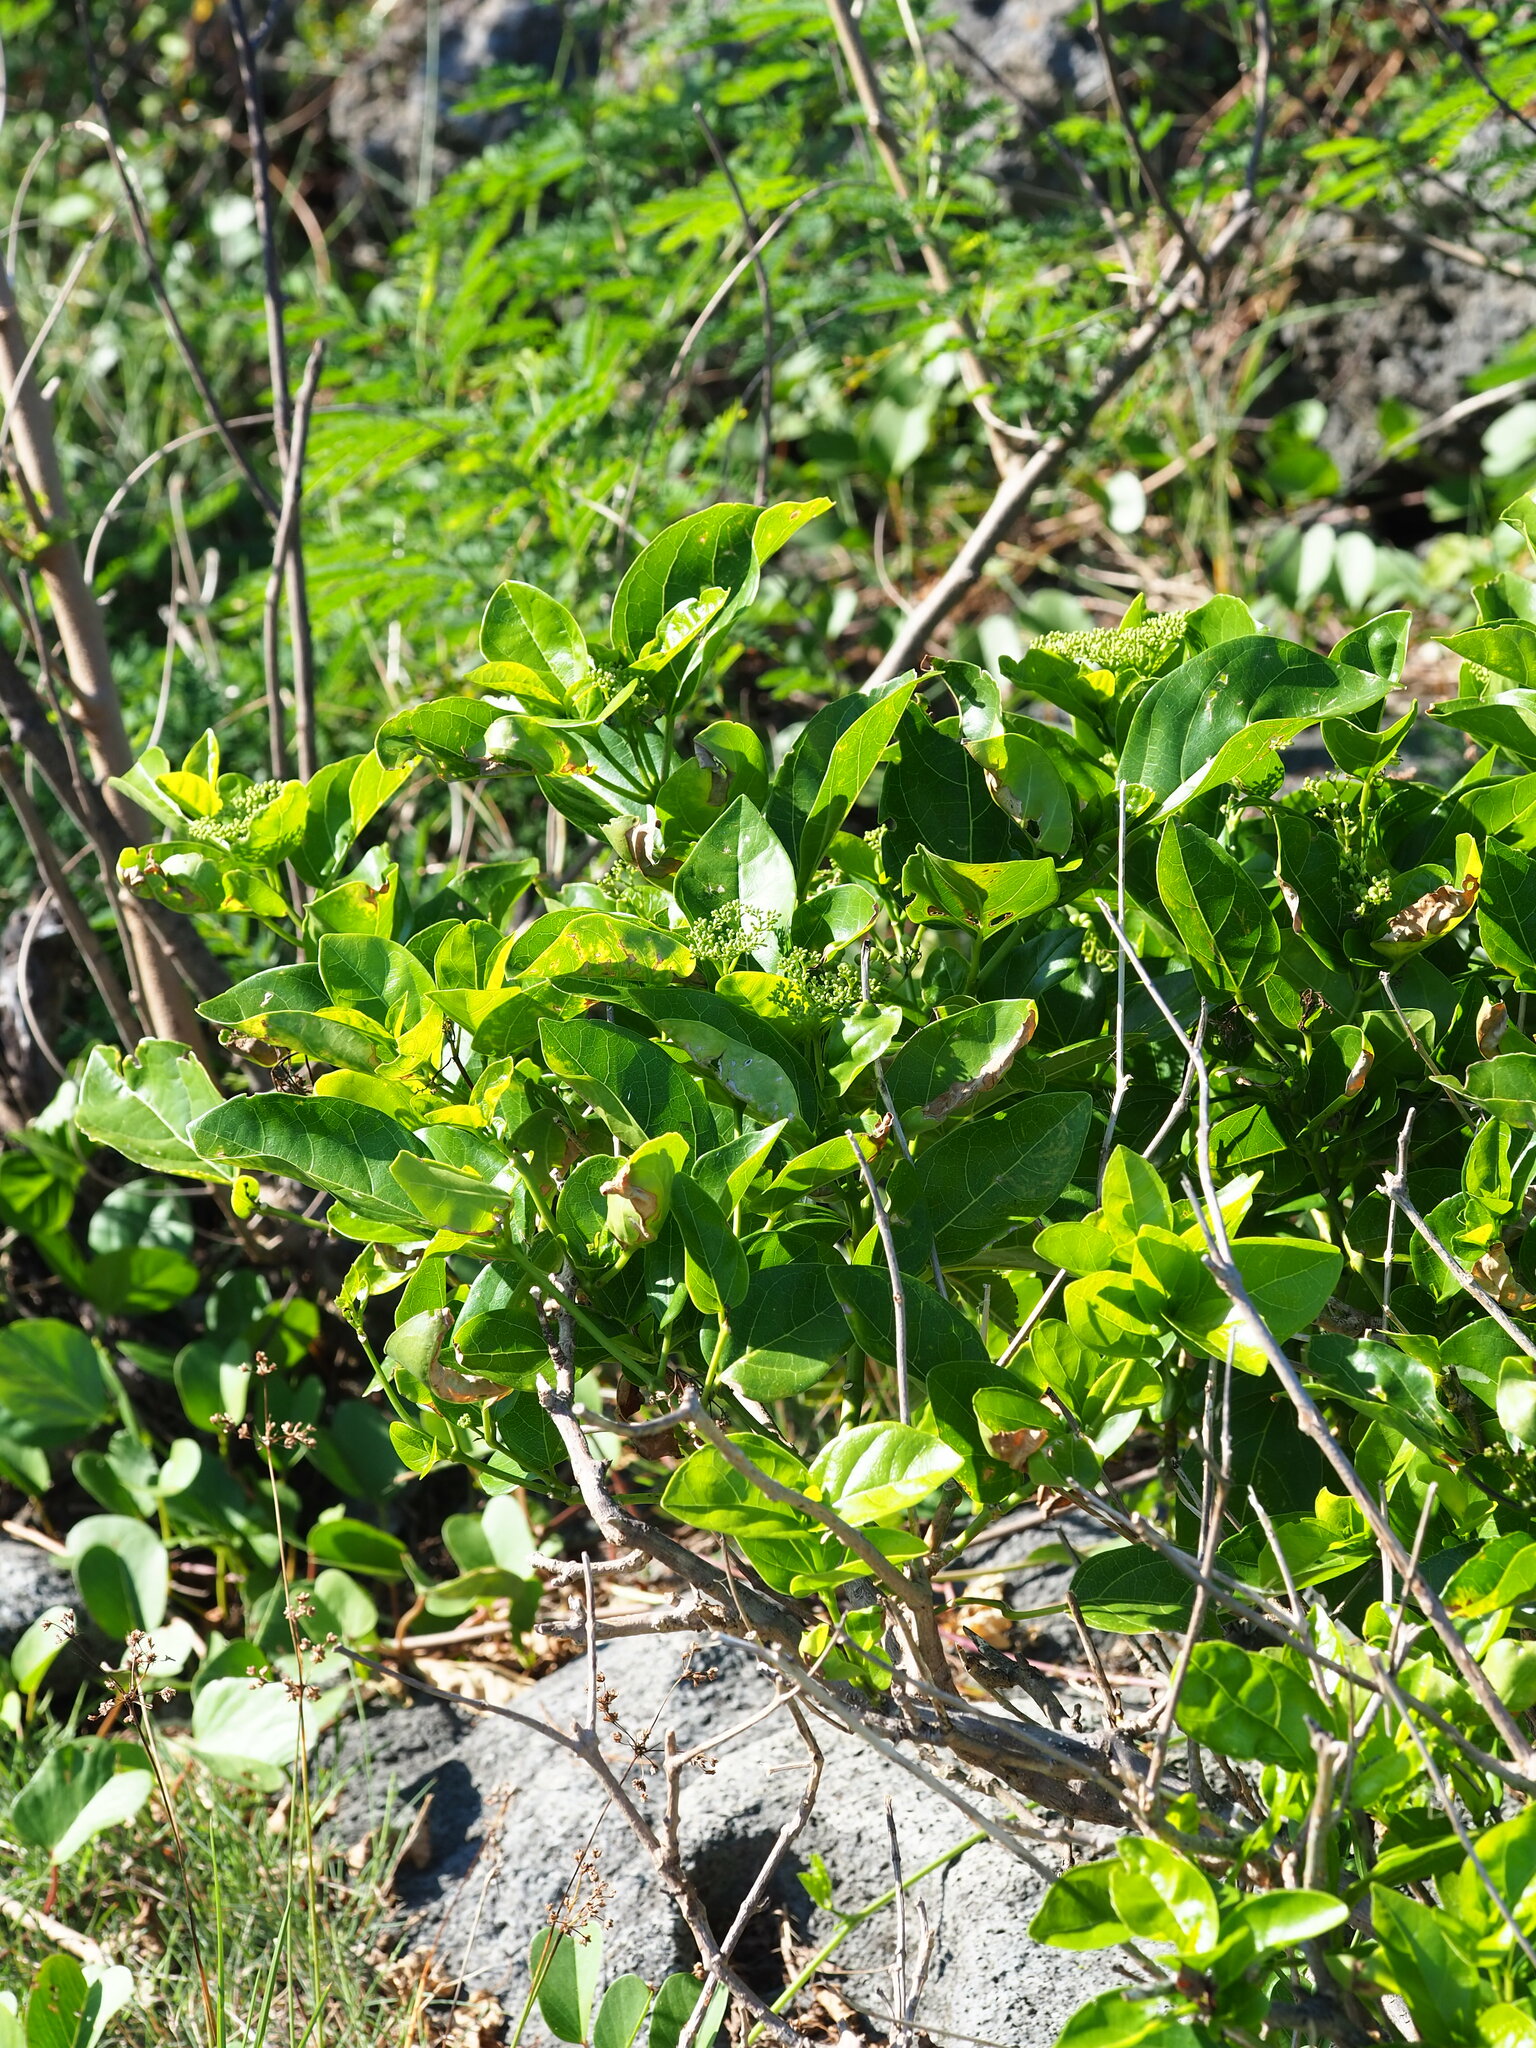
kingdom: Plantae
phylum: Tracheophyta
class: Magnoliopsida
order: Lamiales
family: Lamiaceae
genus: Premna
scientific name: Premna serratifolia
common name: Bastard guelder
